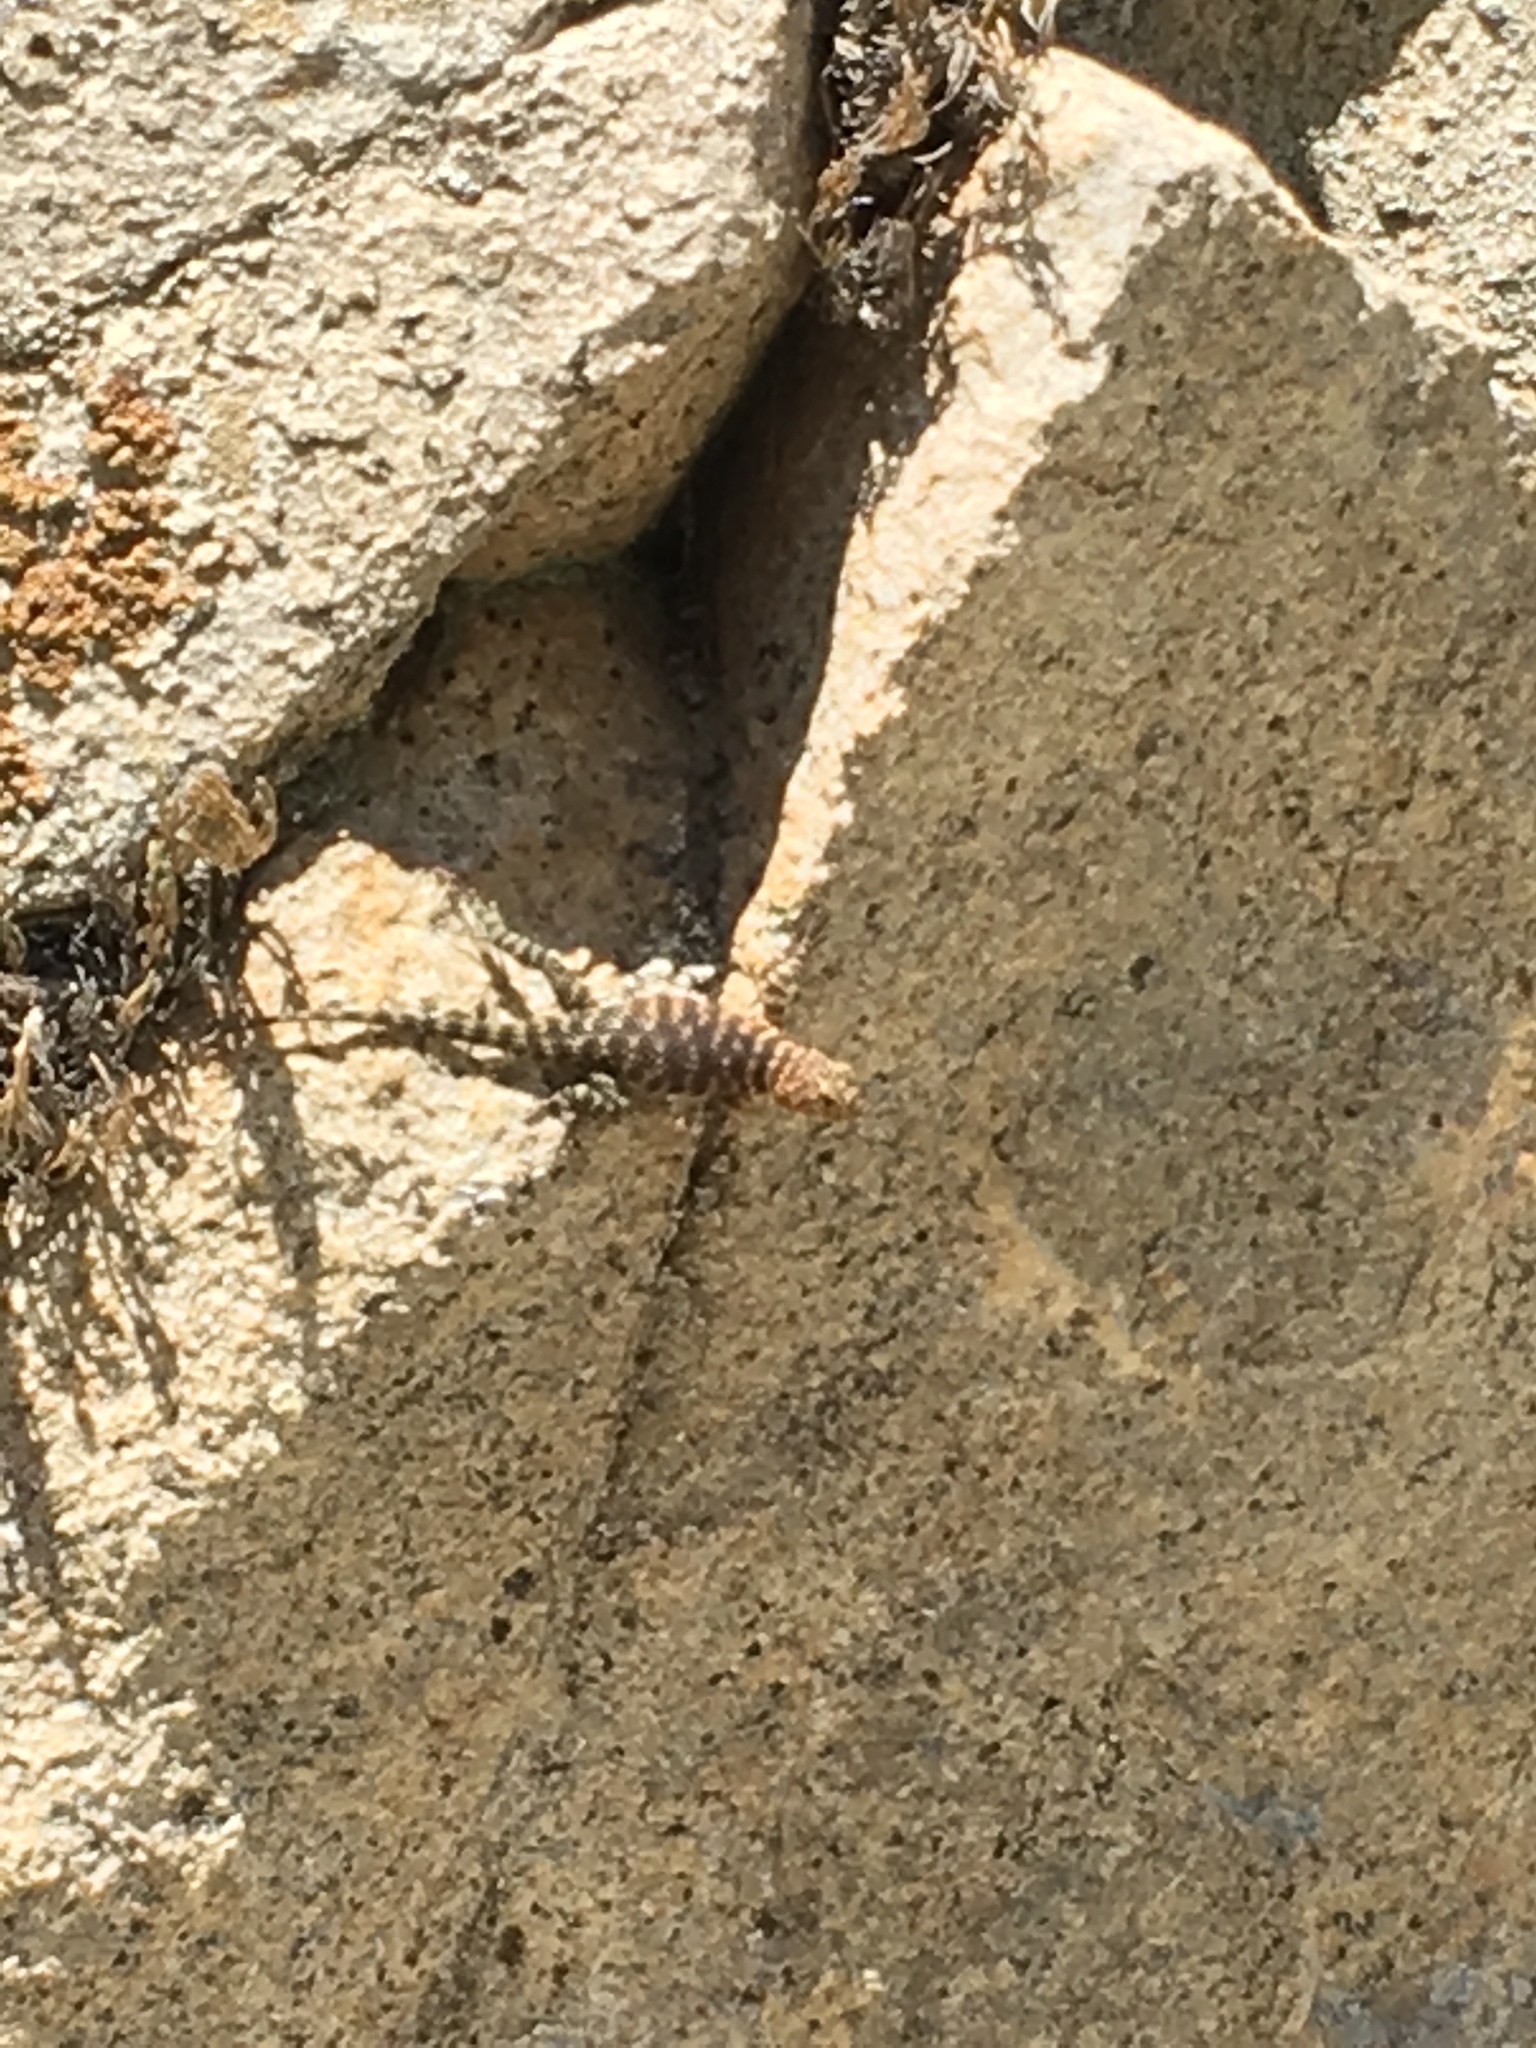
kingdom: Animalia
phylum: Chordata
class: Squamata
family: Phrynosomatidae
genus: Sceloporus
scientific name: Sceloporus orcutti
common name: Granite spiny lizard
